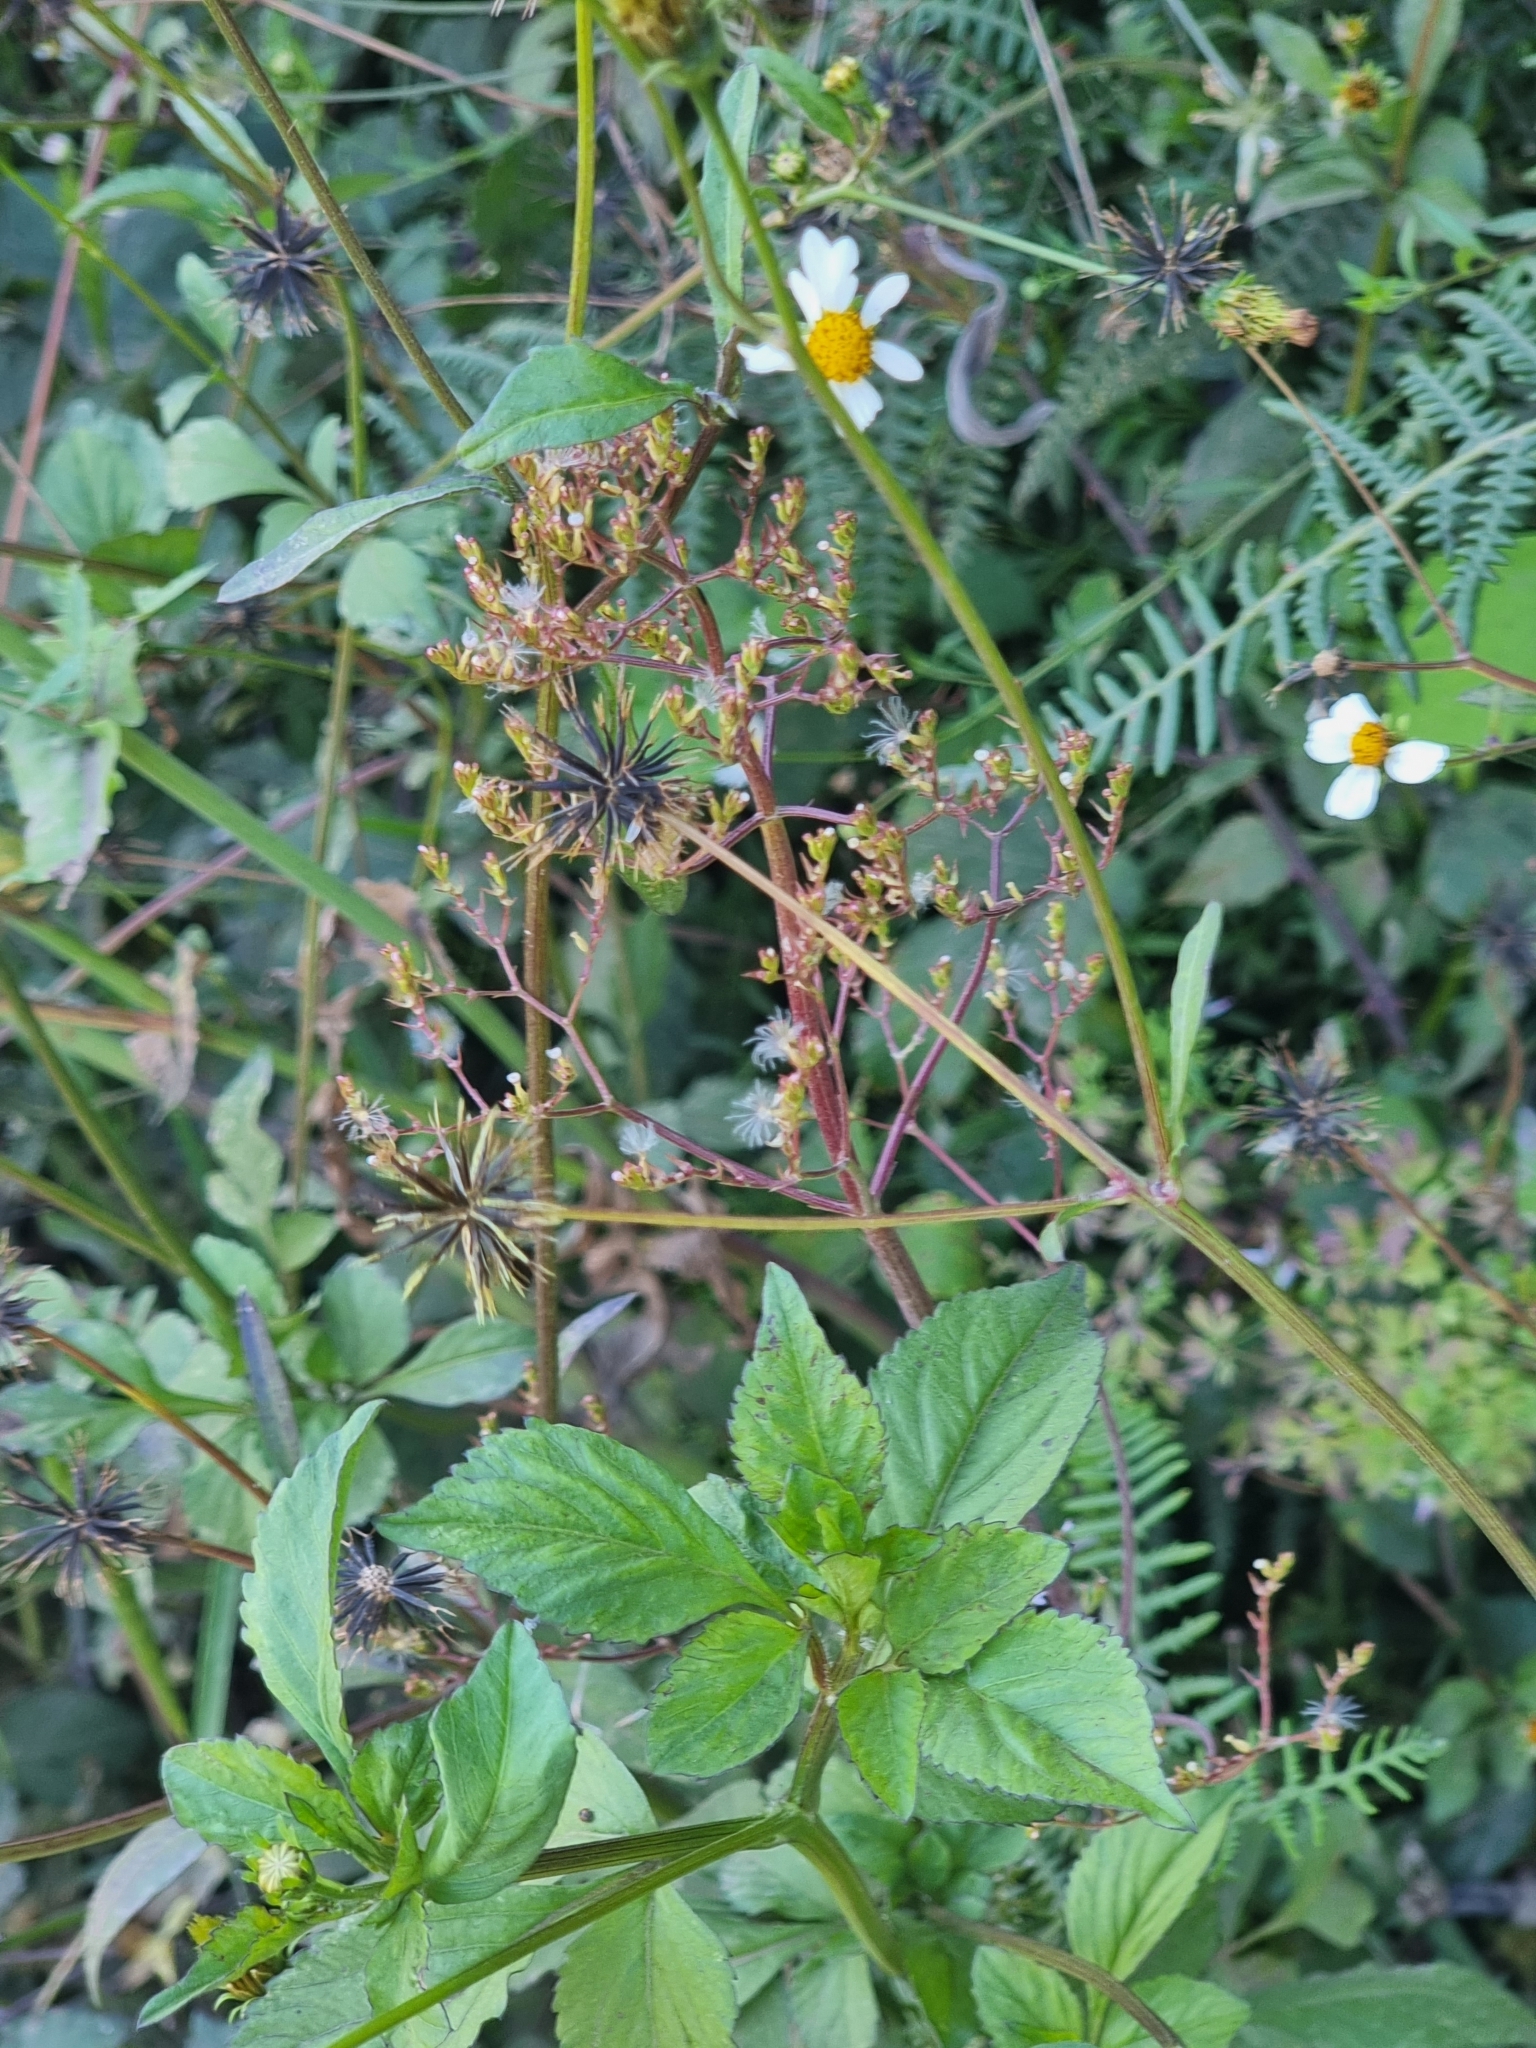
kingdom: Plantae
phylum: Tracheophyta
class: Magnoliopsida
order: Asterales
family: Asteraceae
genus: Bidens
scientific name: Bidens pilosa
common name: Black-jack
